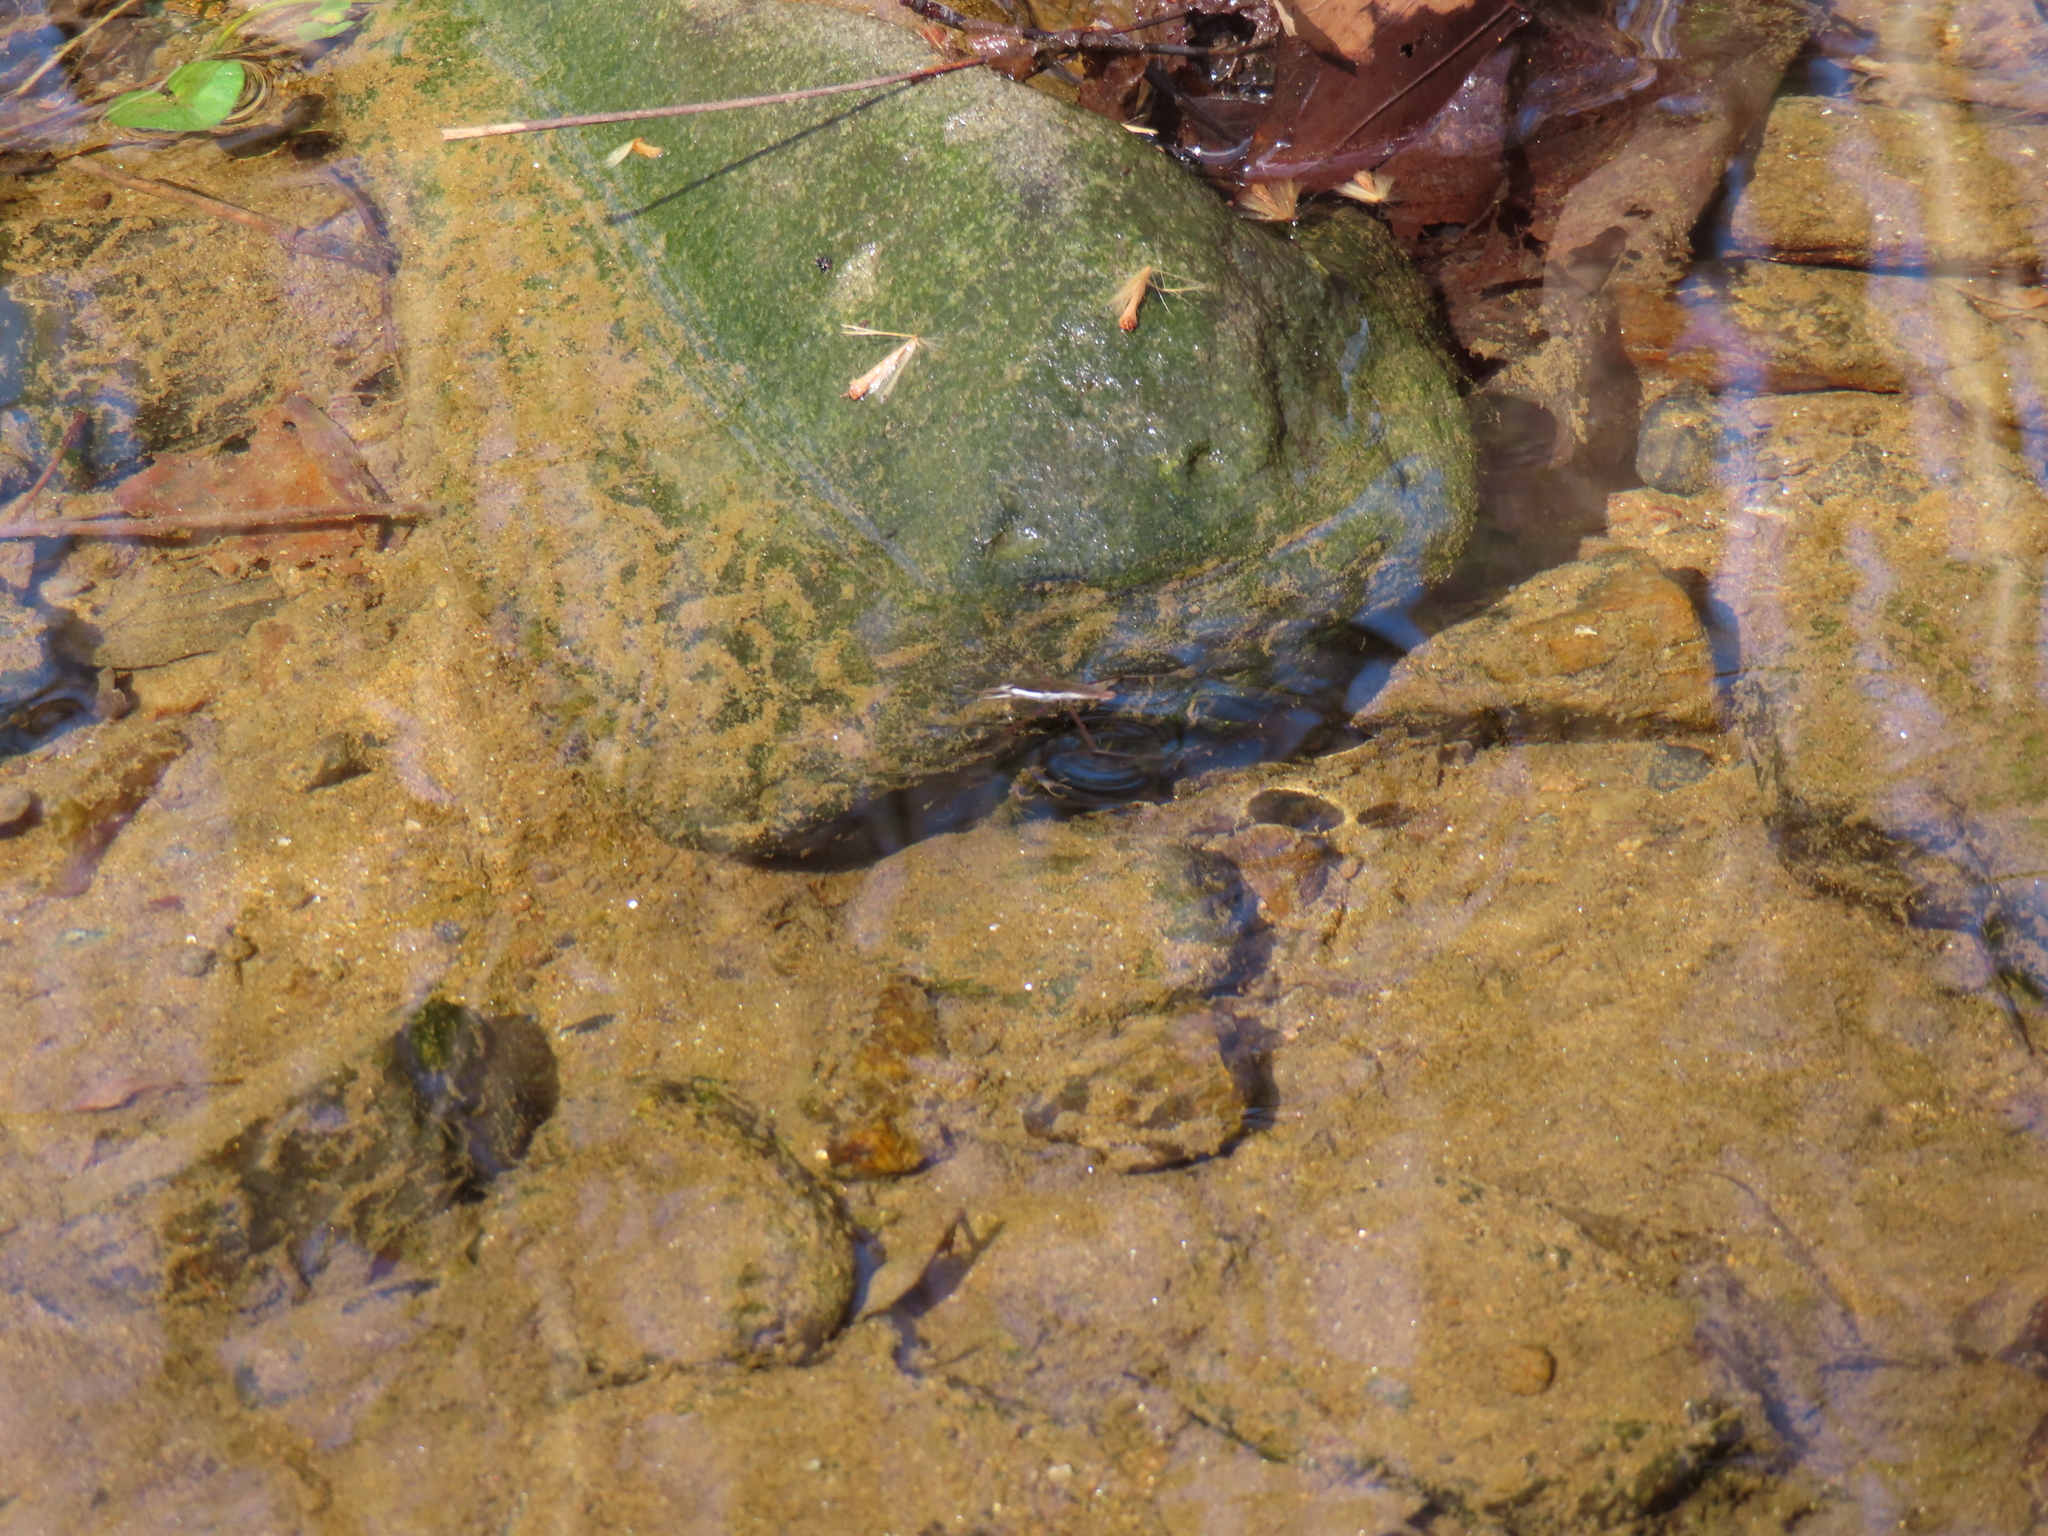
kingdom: Animalia
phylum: Arthropoda
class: Insecta
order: Hemiptera
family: Gerridae
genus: Aquarius
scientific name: Aquarius remigis
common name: Common water strider
